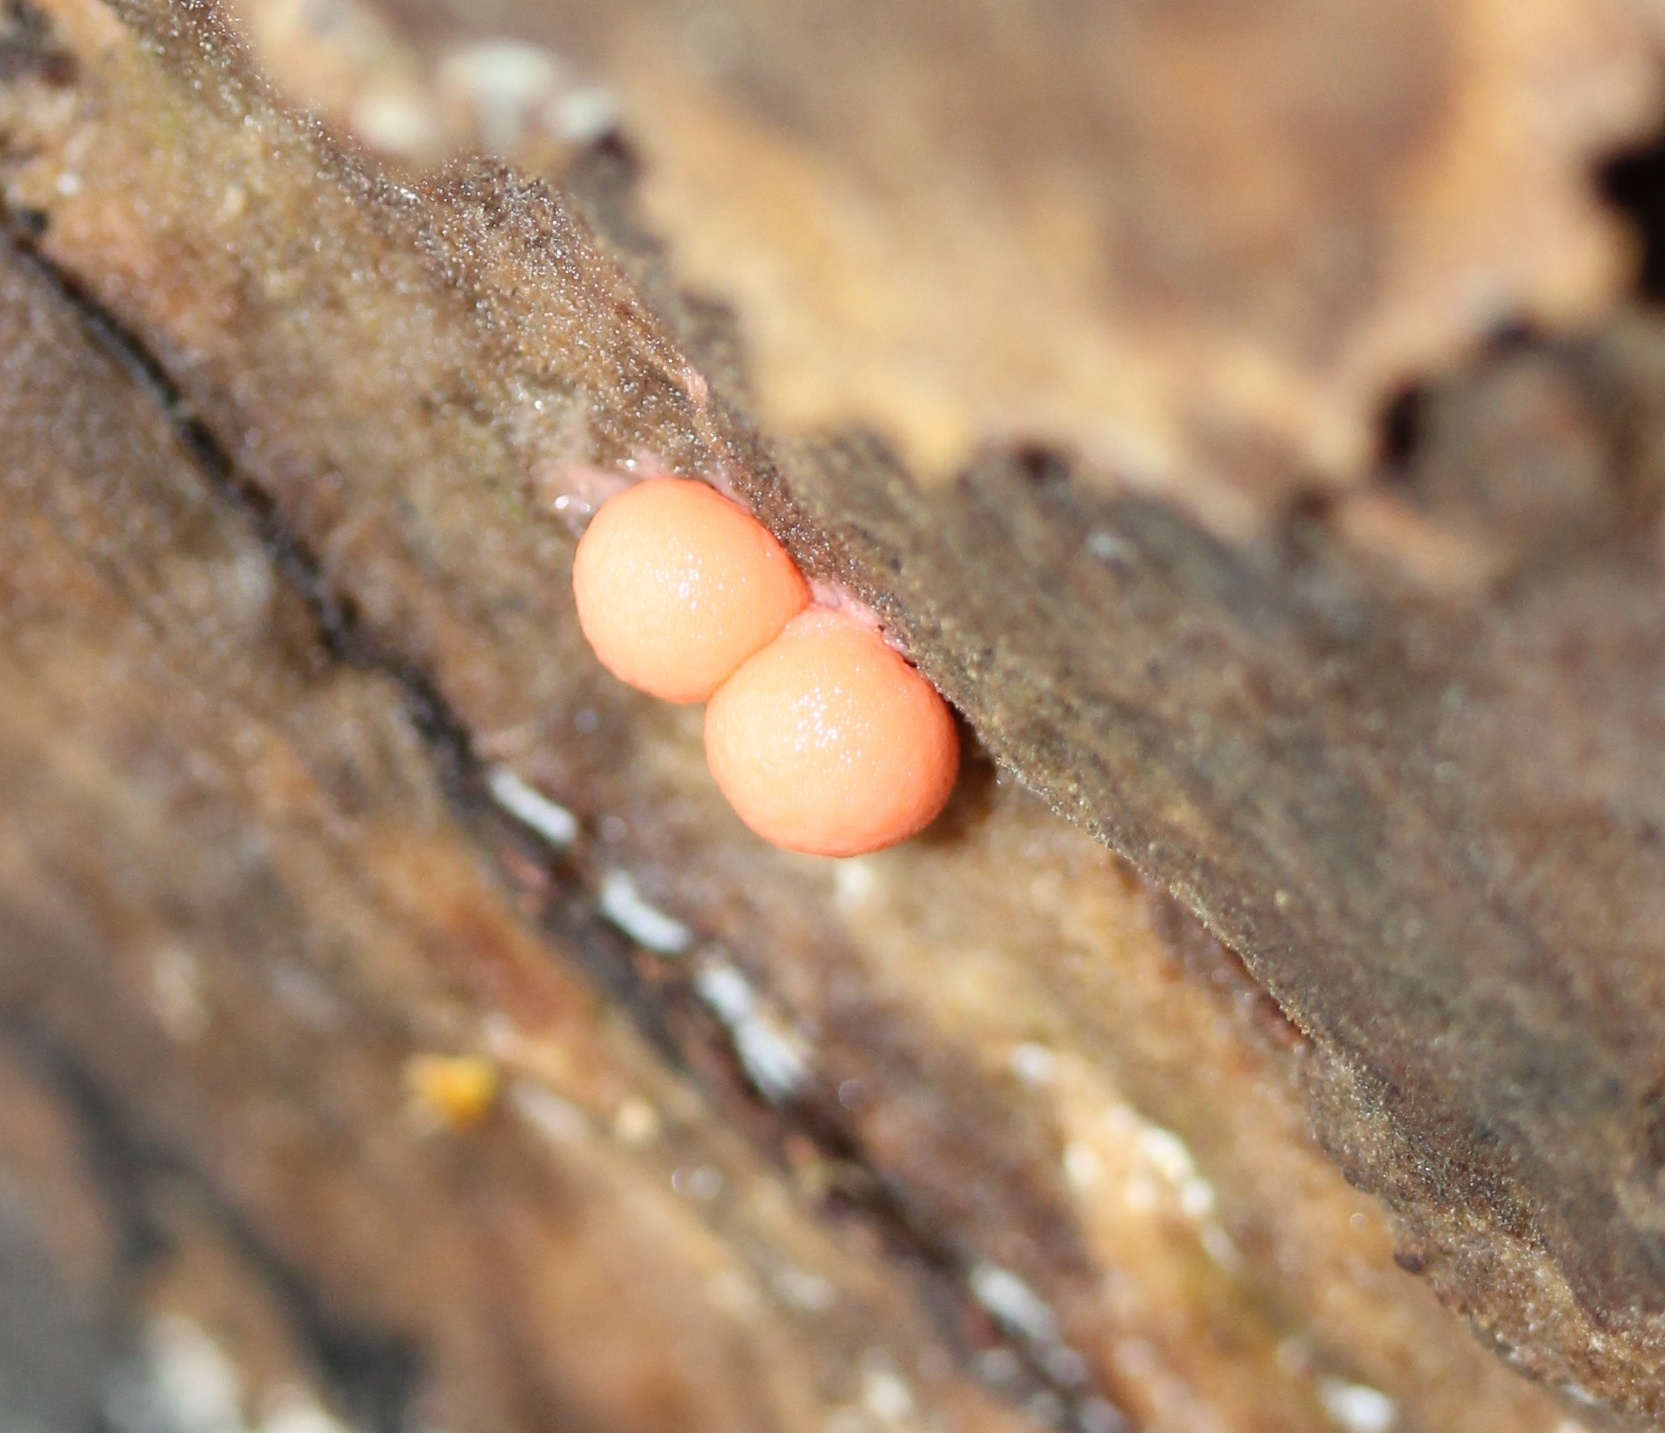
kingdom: Protozoa
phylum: Mycetozoa
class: Myxomycetes
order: Cribrariales
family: Tubiferaceae
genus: Lycogala
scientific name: Lycogala epidendrum
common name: Wolf's milk
